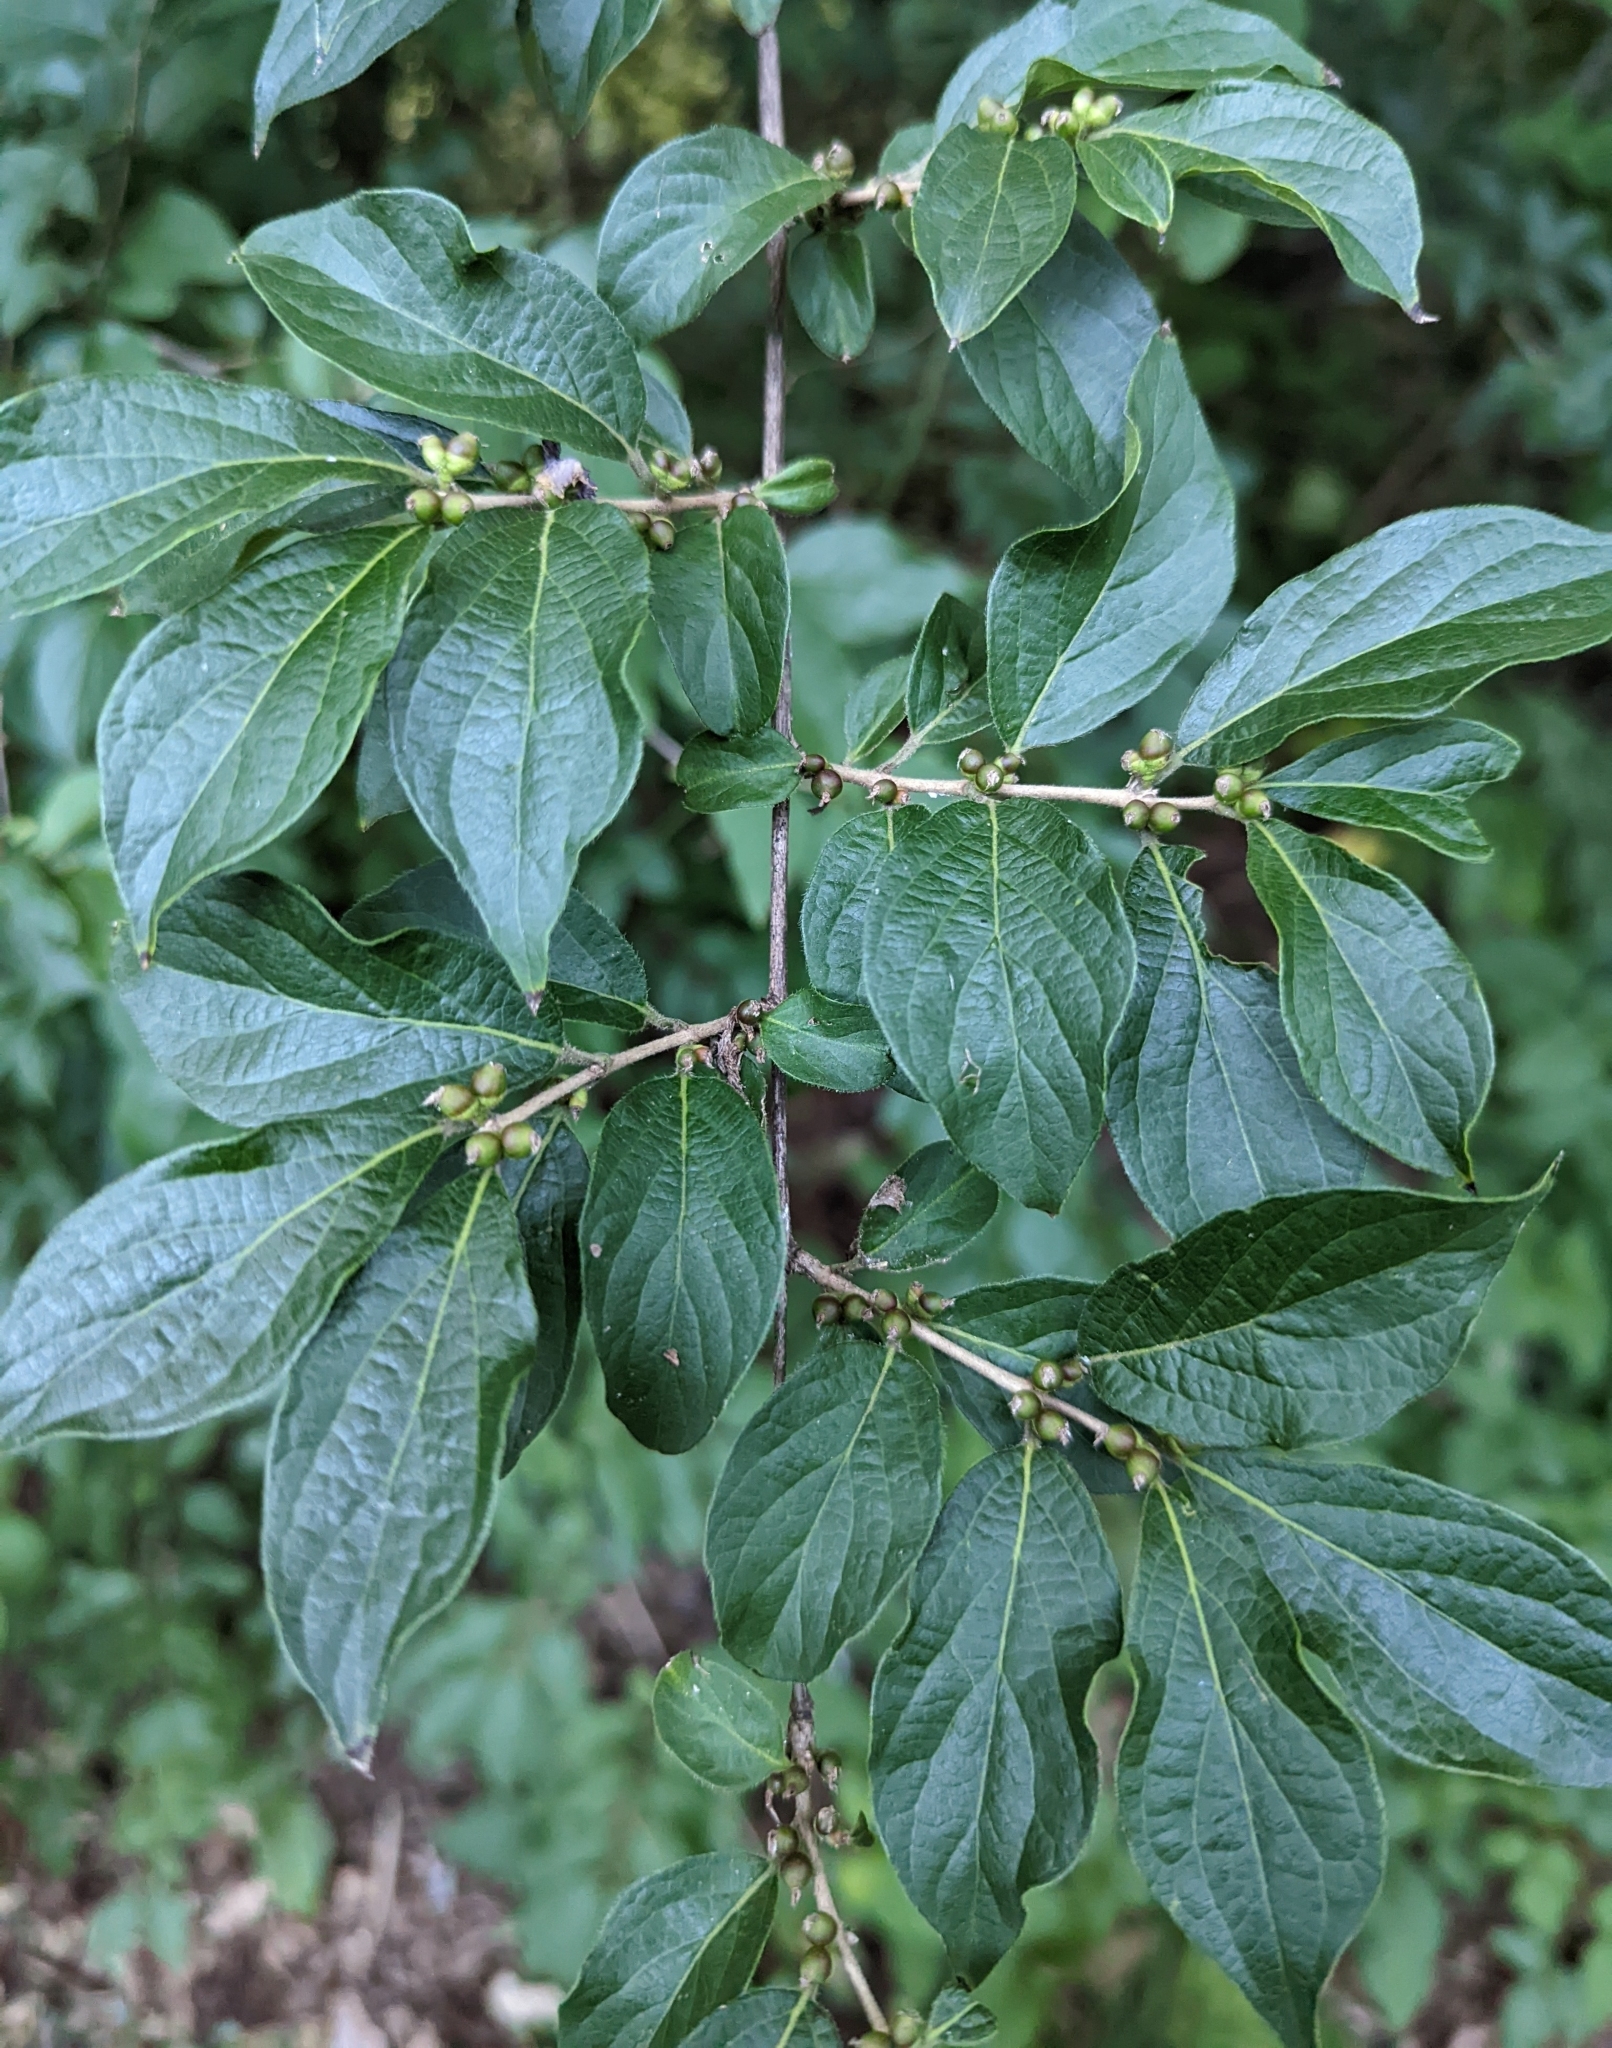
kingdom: Plantae
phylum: Tracheophyta
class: Magnoliopsida
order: Dipsacales
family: Caprifoliaceae
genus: Lonicera
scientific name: Lonicera maackii
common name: Amur honeysuckle
